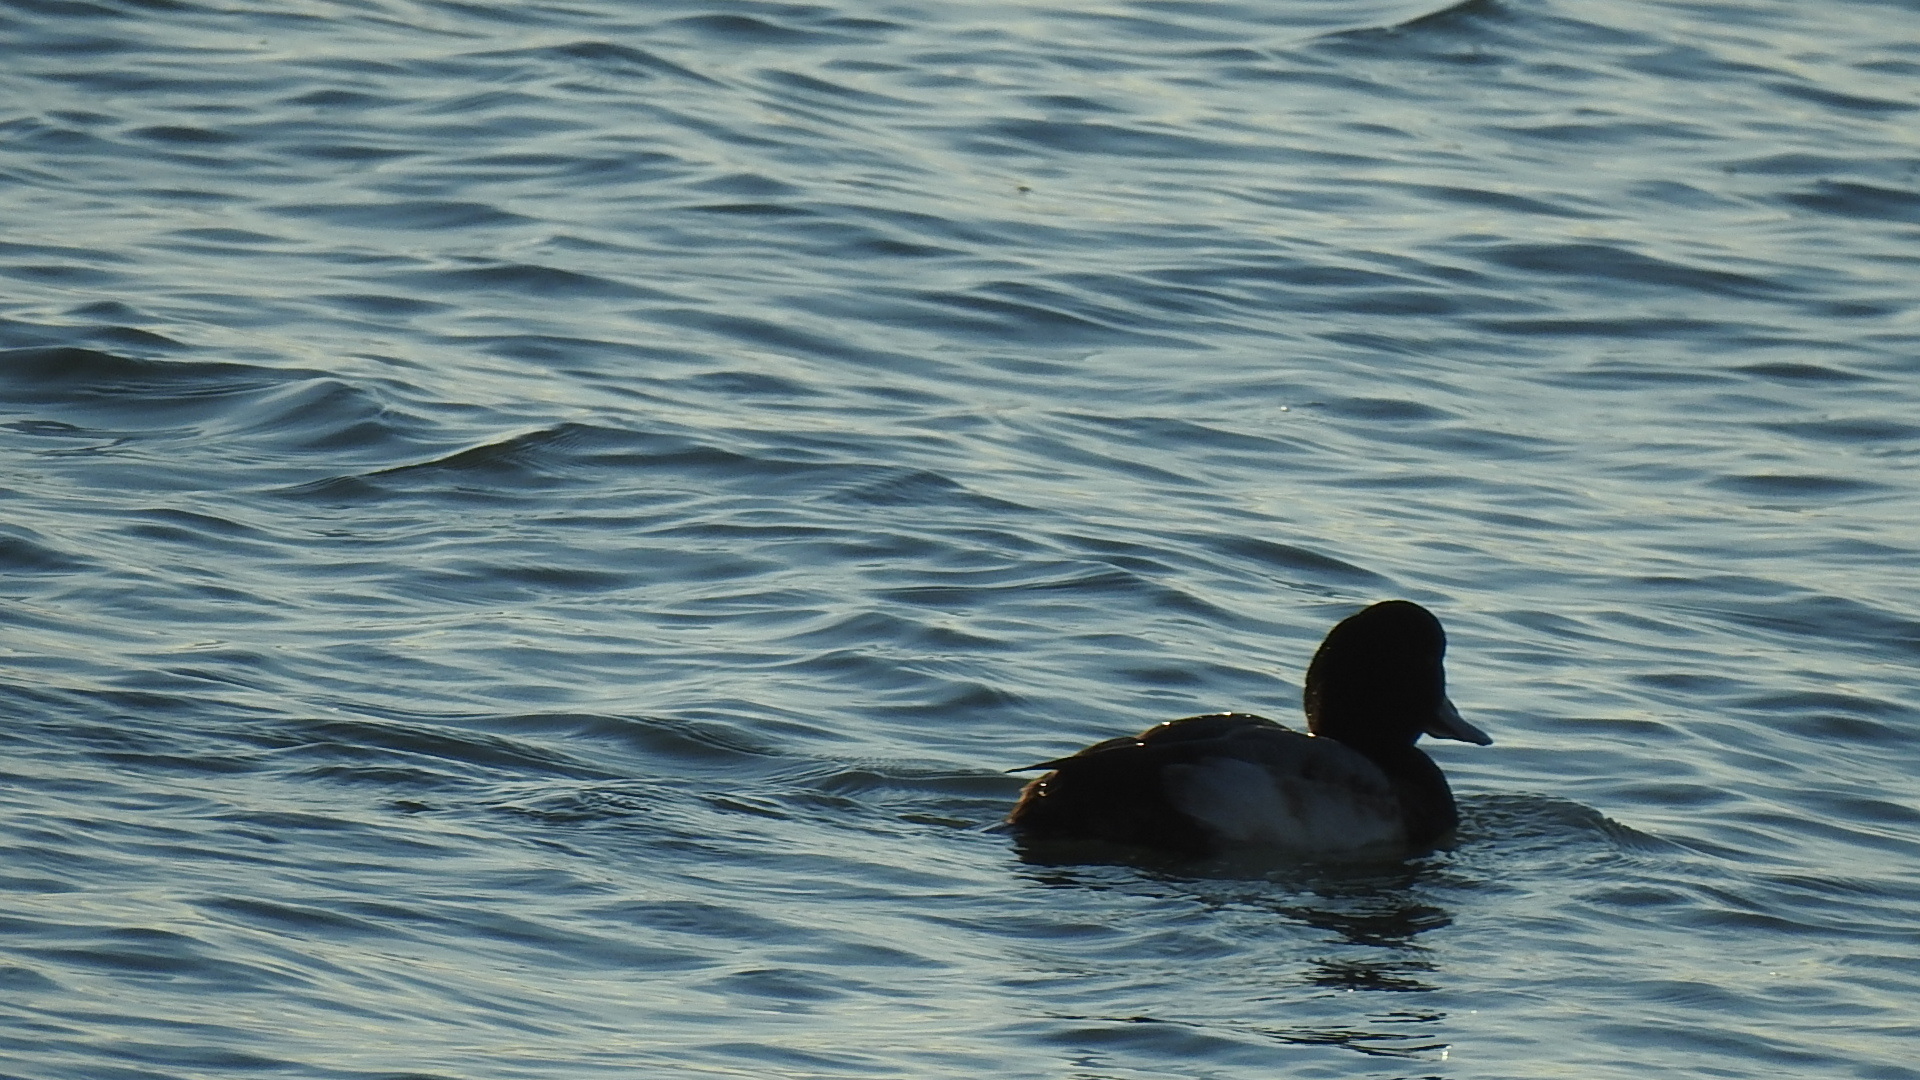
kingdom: Animalia
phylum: Chordata
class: Aves
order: Anseriformes
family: Anatidae
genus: Aythya
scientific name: Aythya marila
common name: Greater scaup
